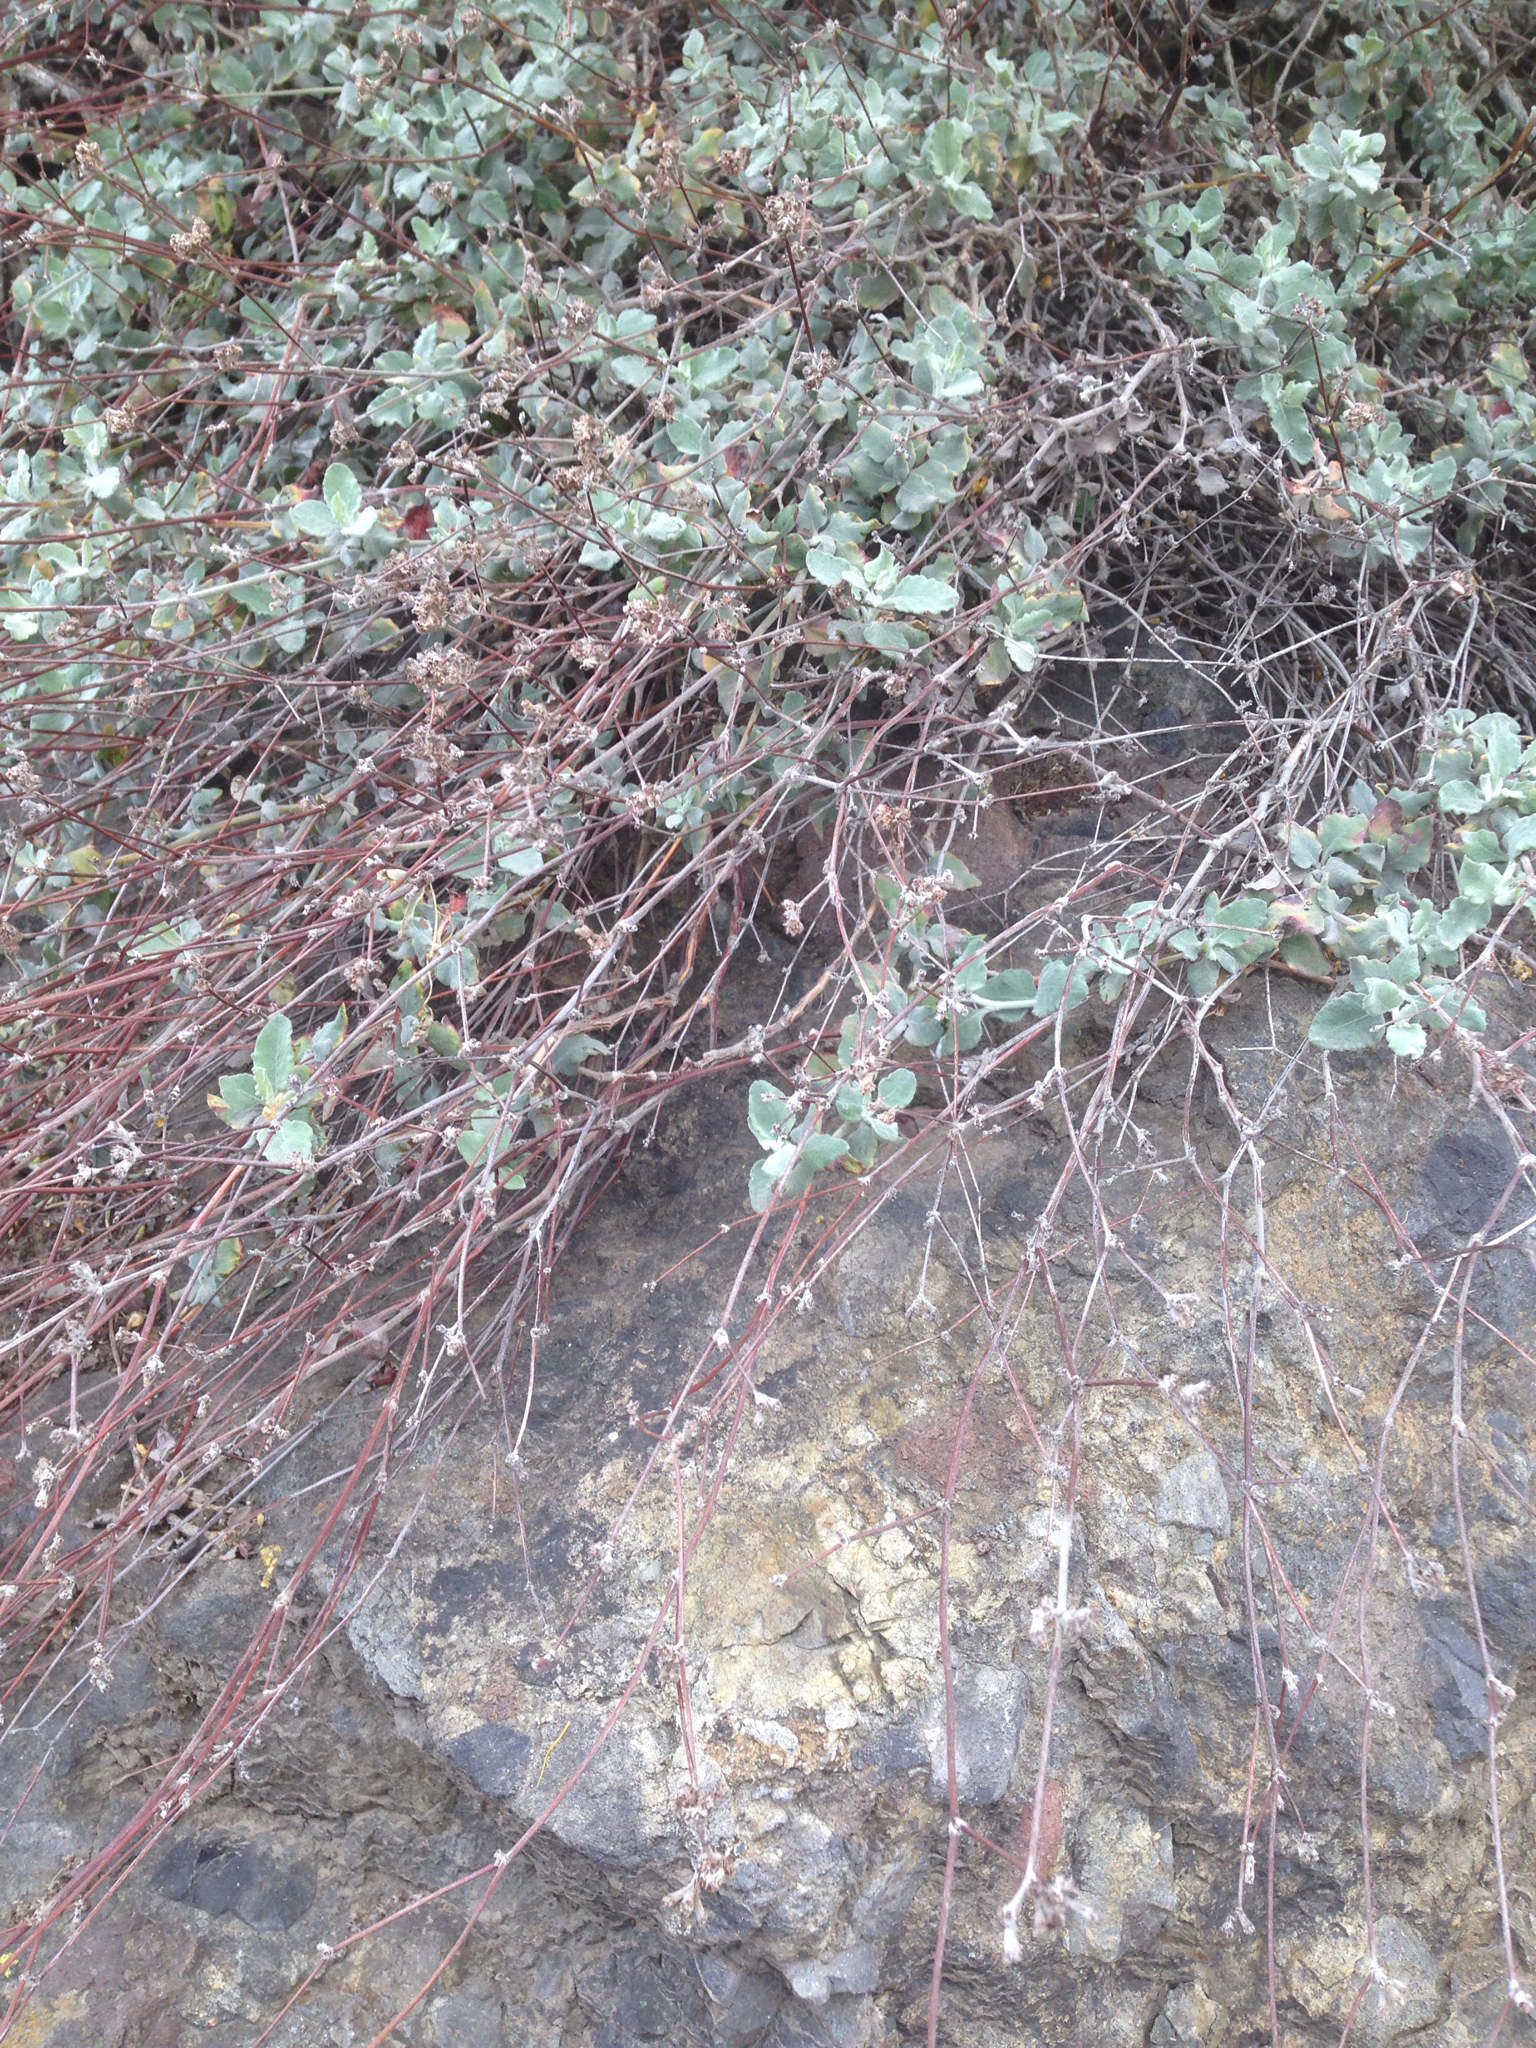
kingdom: Plantae
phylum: Tracheophyta
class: Magnoliopsida
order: Caryophyllales
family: Polygonaceae
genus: Eriogonum
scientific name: Eriogonum cinereum
